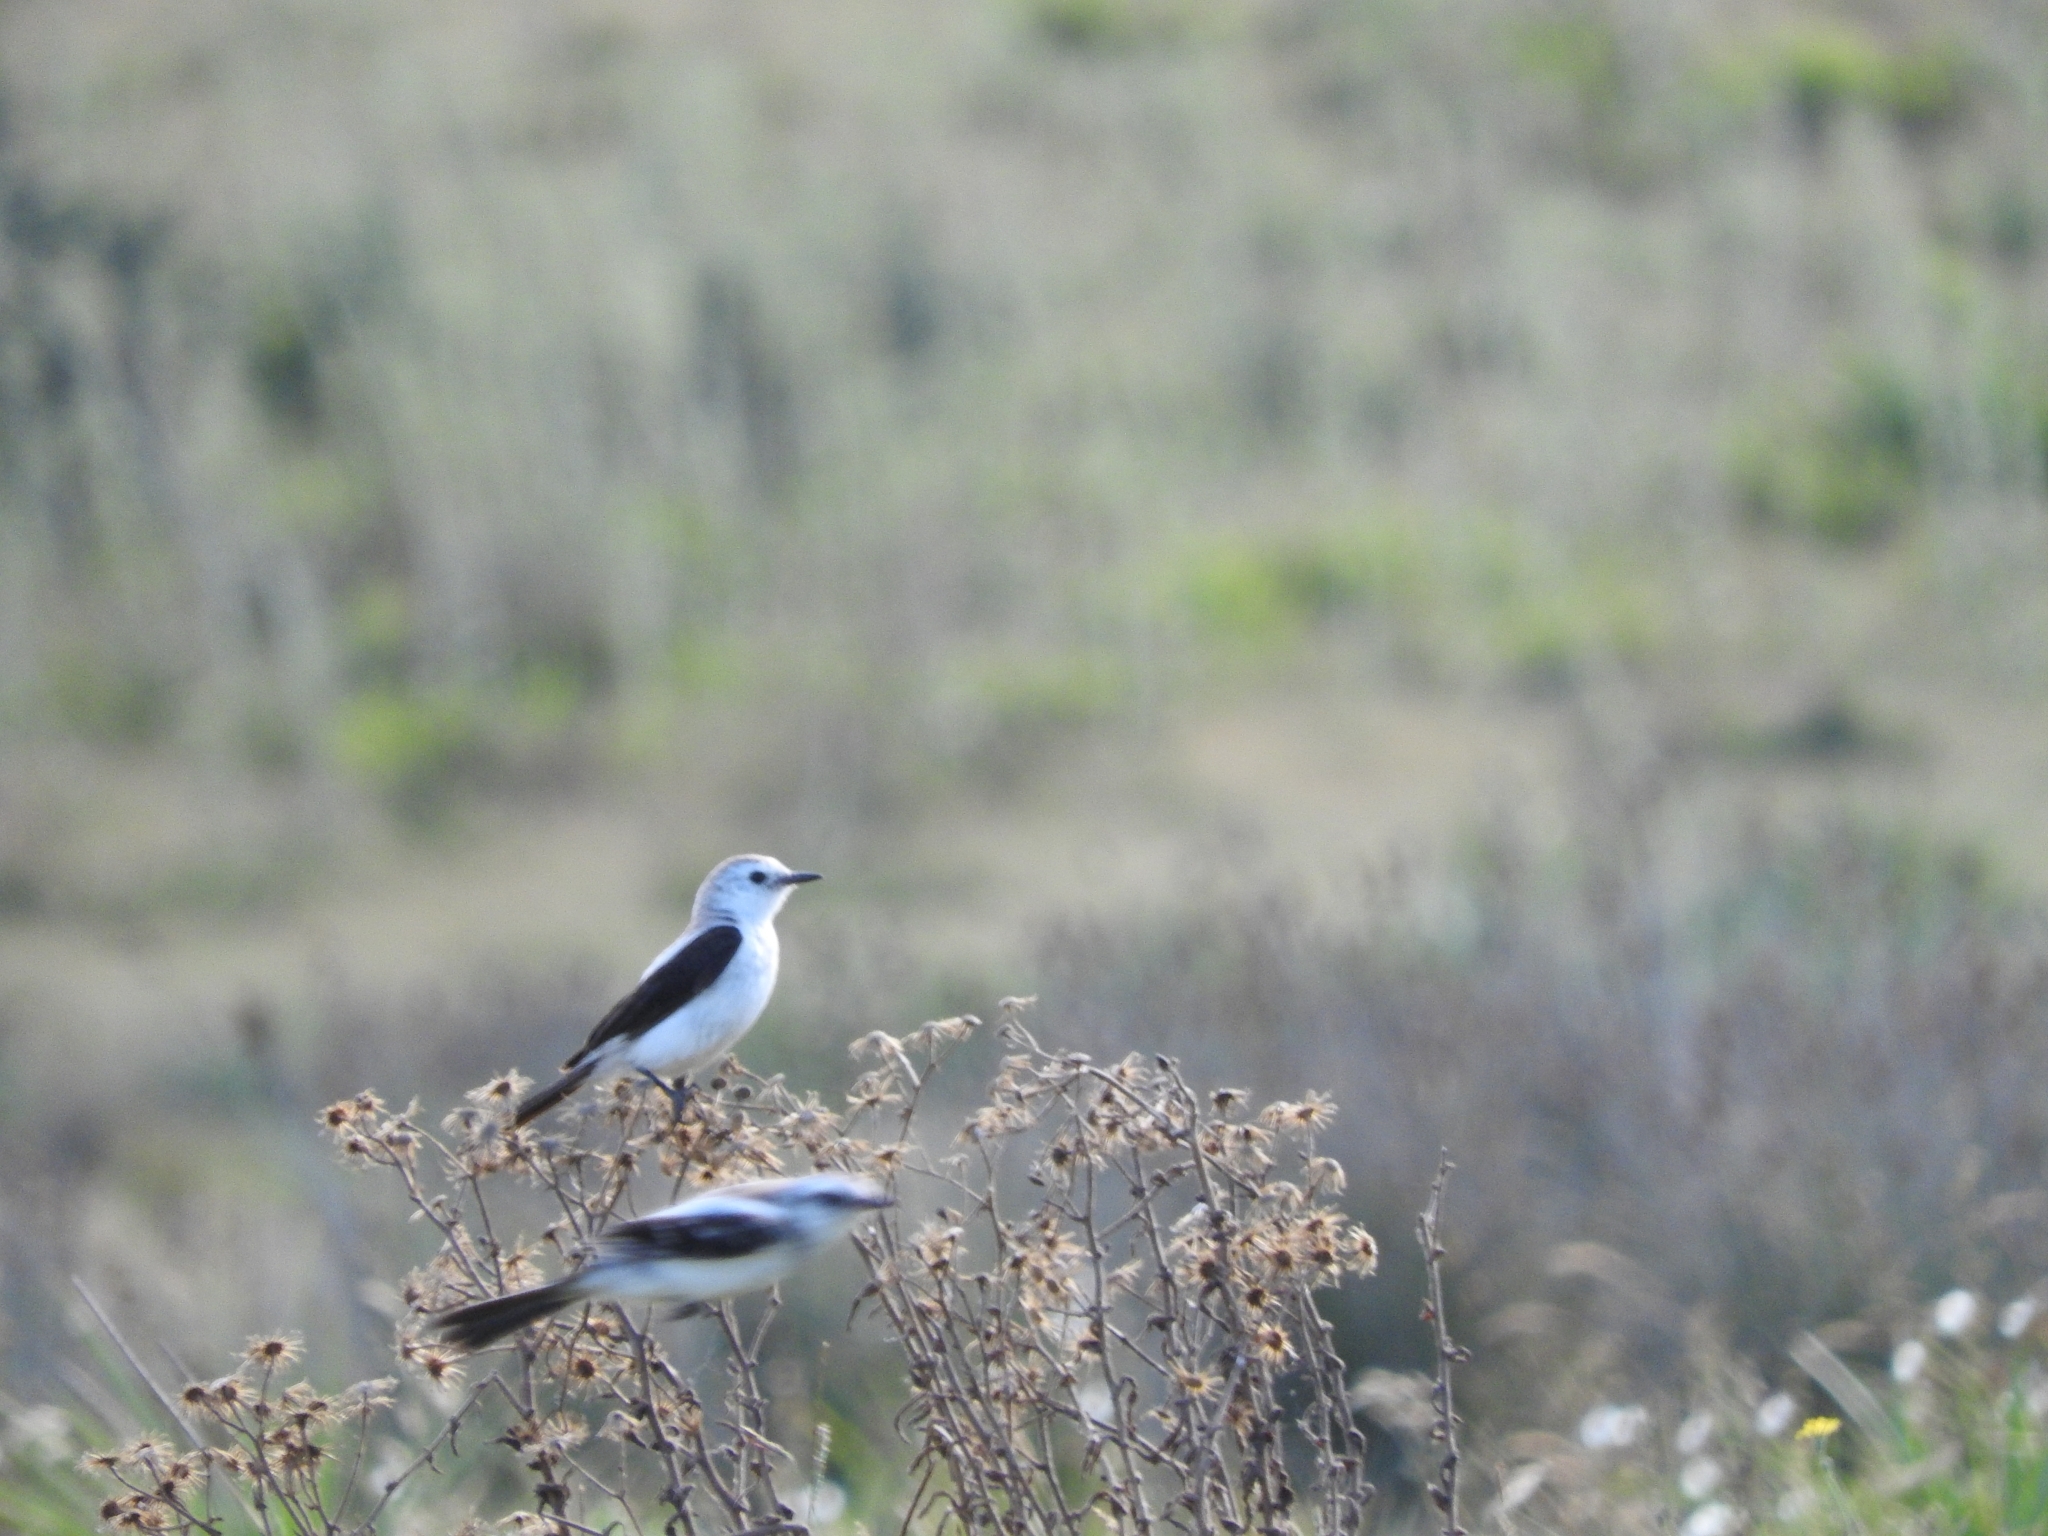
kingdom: Animalia
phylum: Chordata
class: Aves
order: Passeriformes
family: Tyrannidae
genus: Heteroxolmis
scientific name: Heteroxolmis dominicana
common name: Black-and-white monjita
